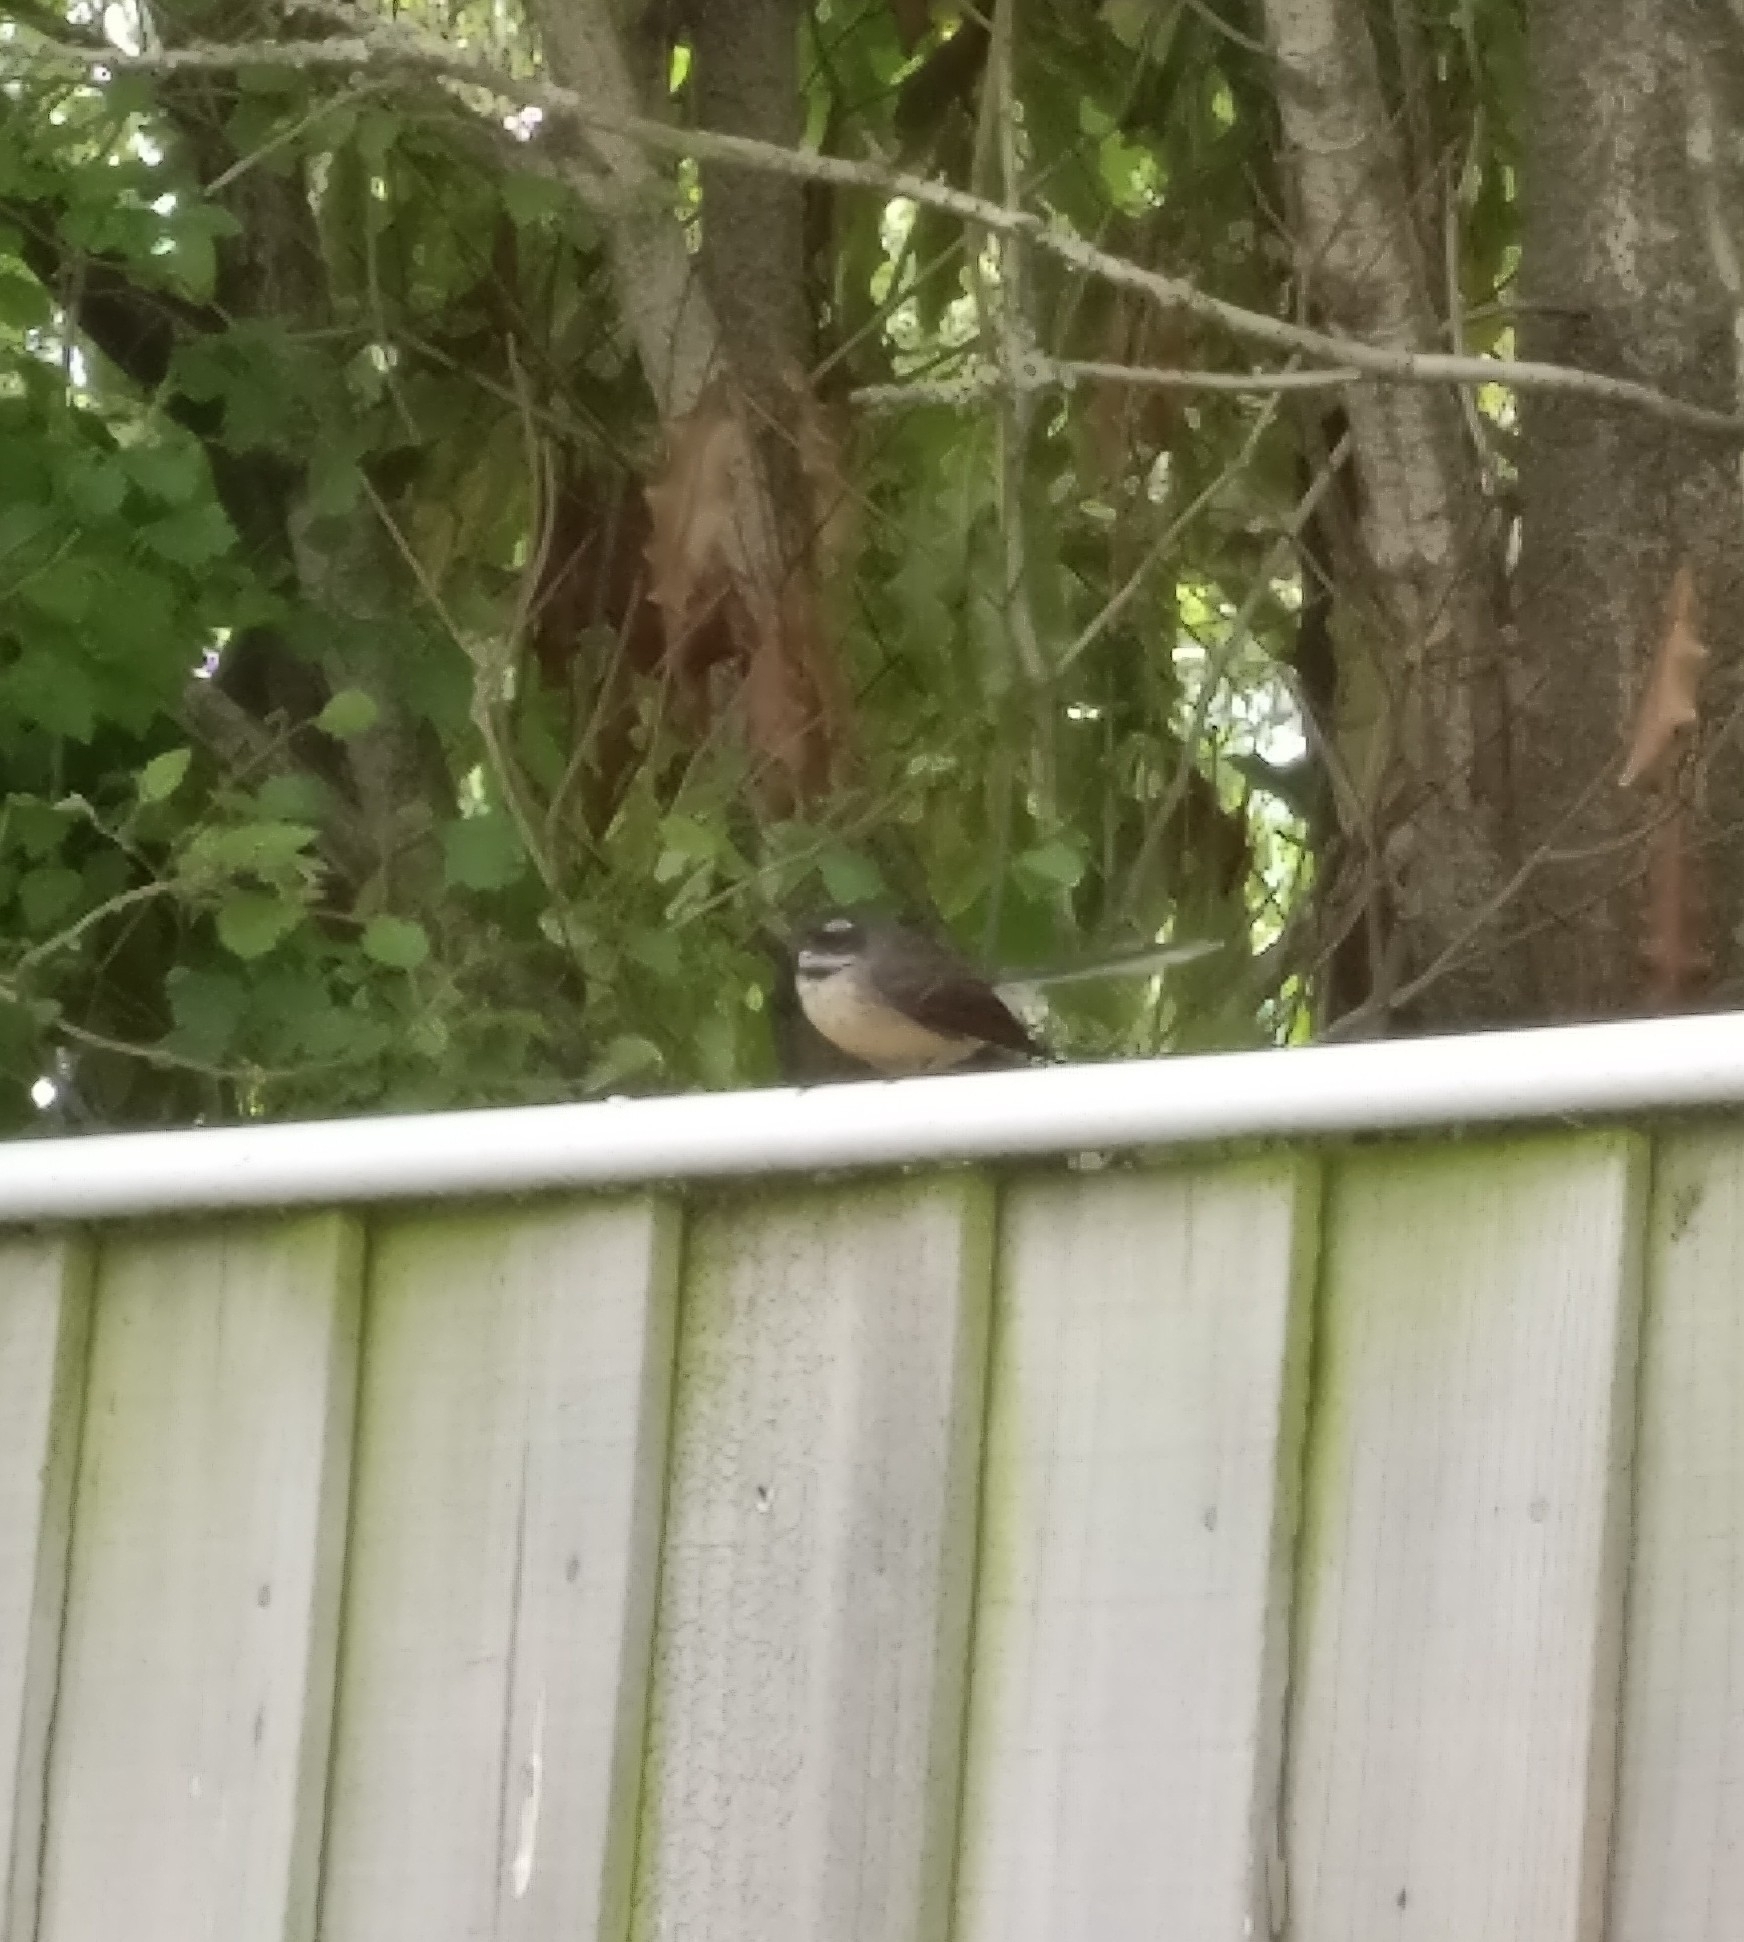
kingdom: Animalia
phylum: Chordata
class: Aves
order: Passeriformes
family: Rhipiduridae
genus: Rhipidura
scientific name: Rhipidura fuliginosa
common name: New zealand fantail
